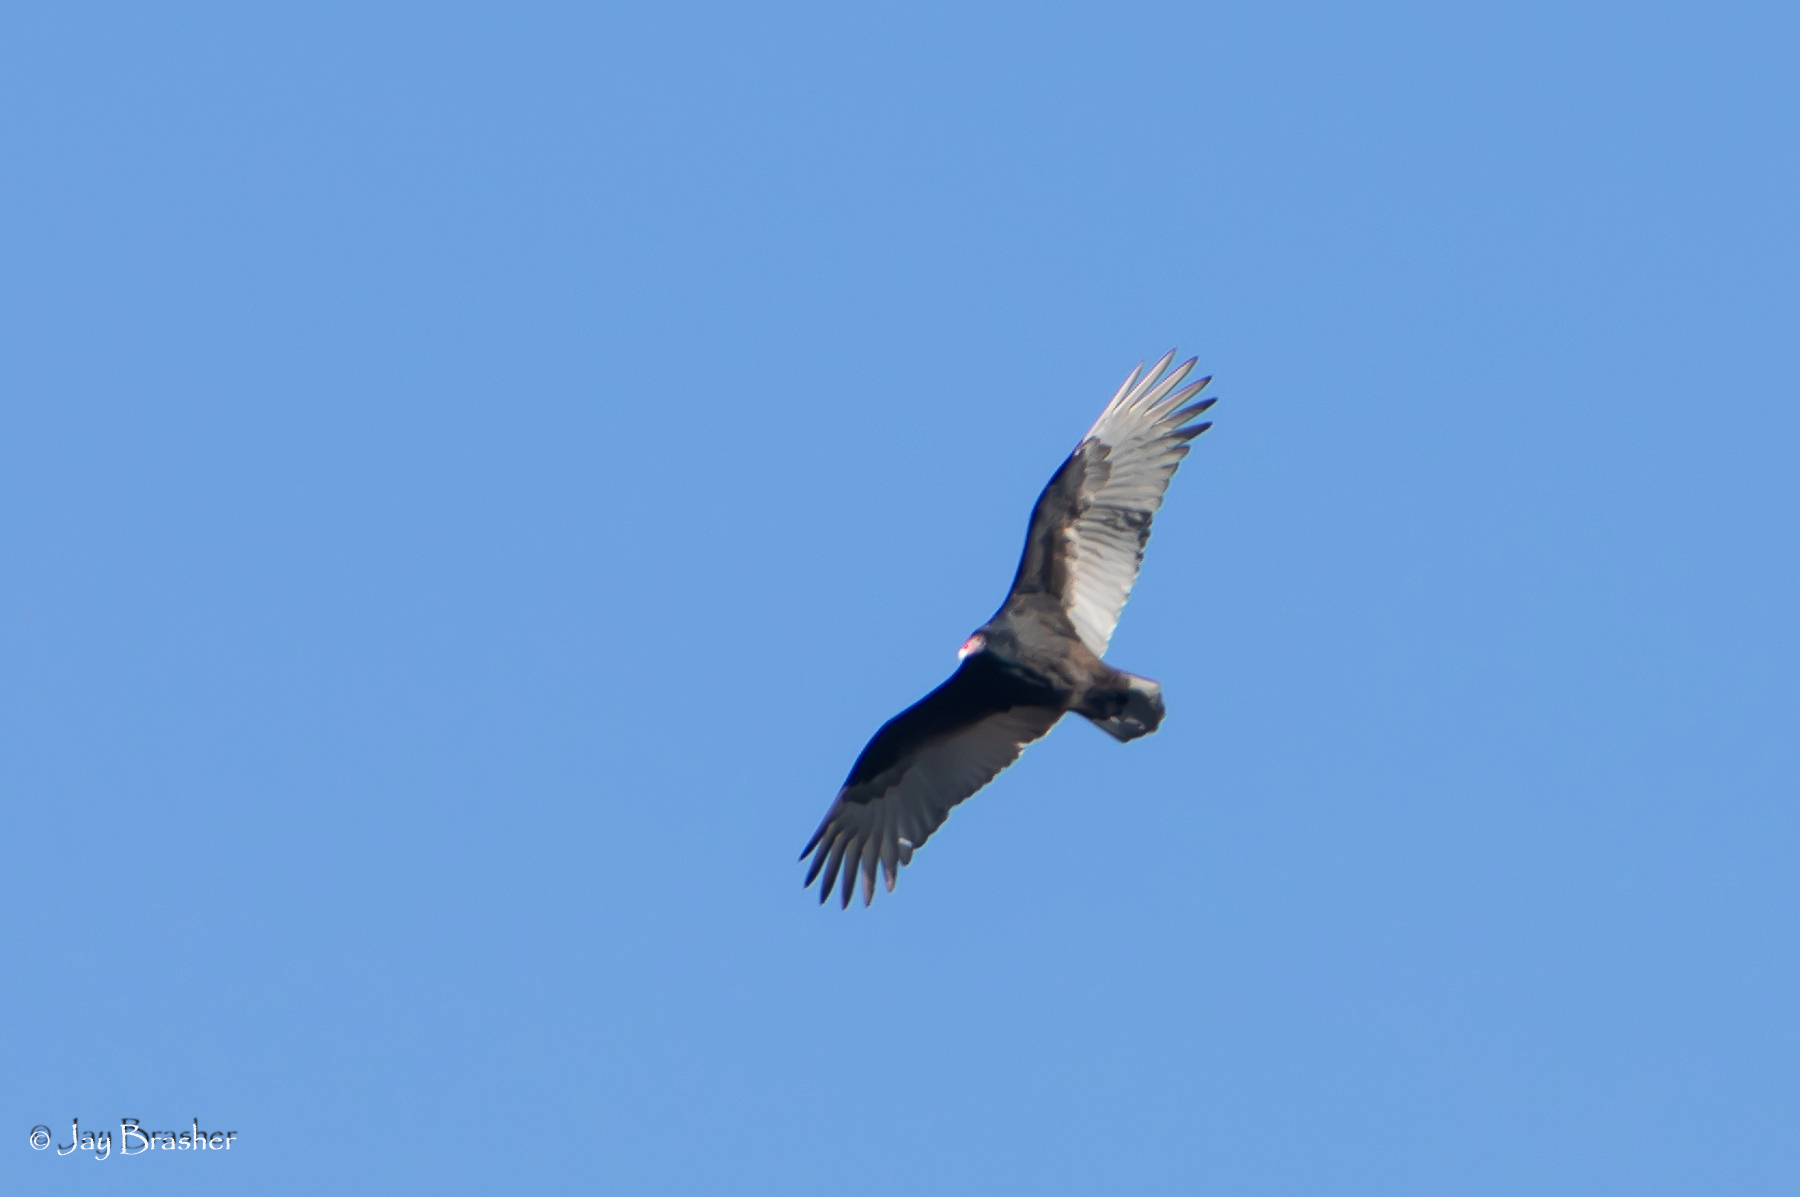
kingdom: Animalia
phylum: Chordata
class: Aves
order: Accipitriformes
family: Cathartidae
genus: Cathartes
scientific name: Cathartes aura
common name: Turkey vulture
